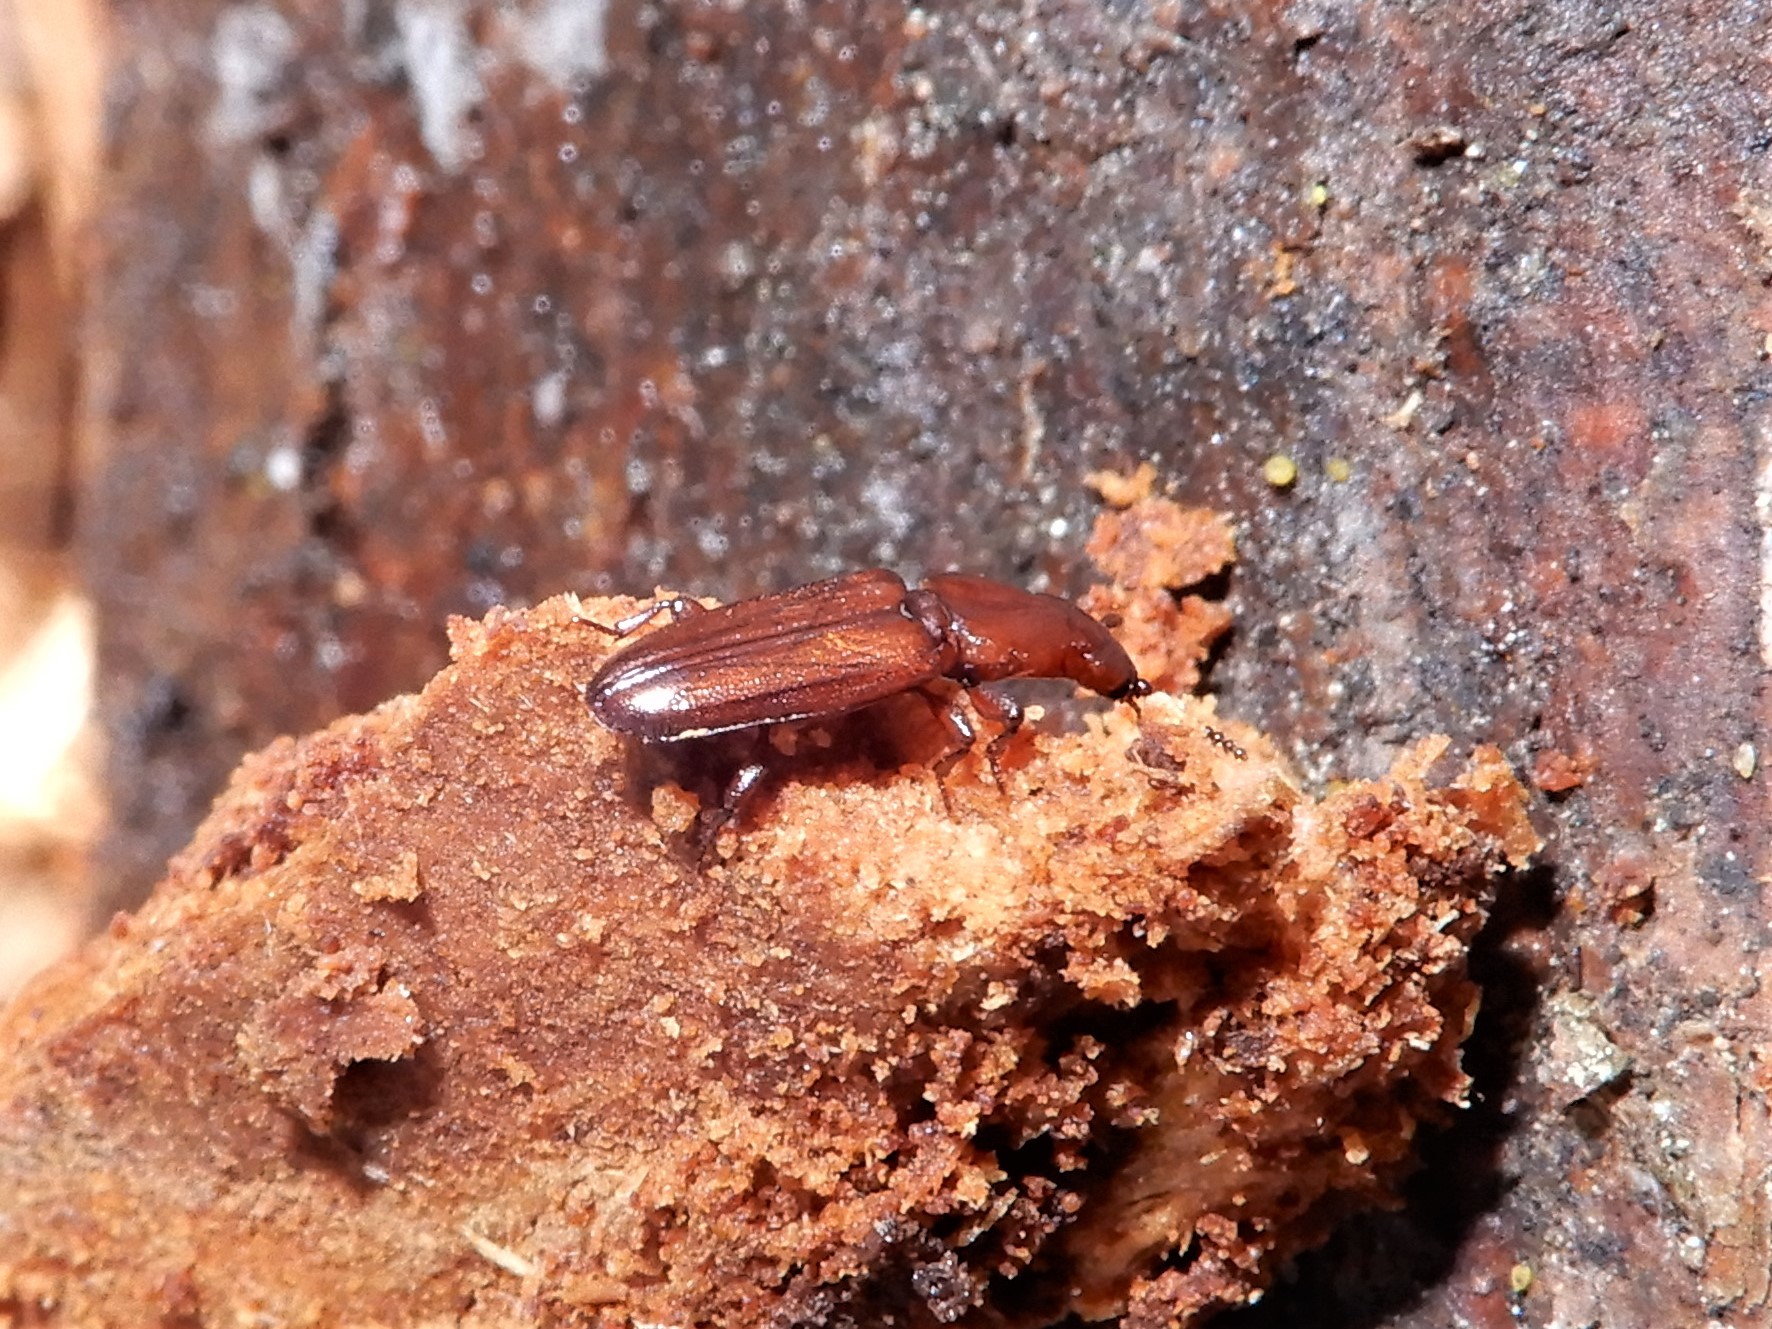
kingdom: Animalia
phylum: Arthropoda
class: Insecta
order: Coleoptera
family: Prostomidae
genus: Dryocora
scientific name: Dryocora
